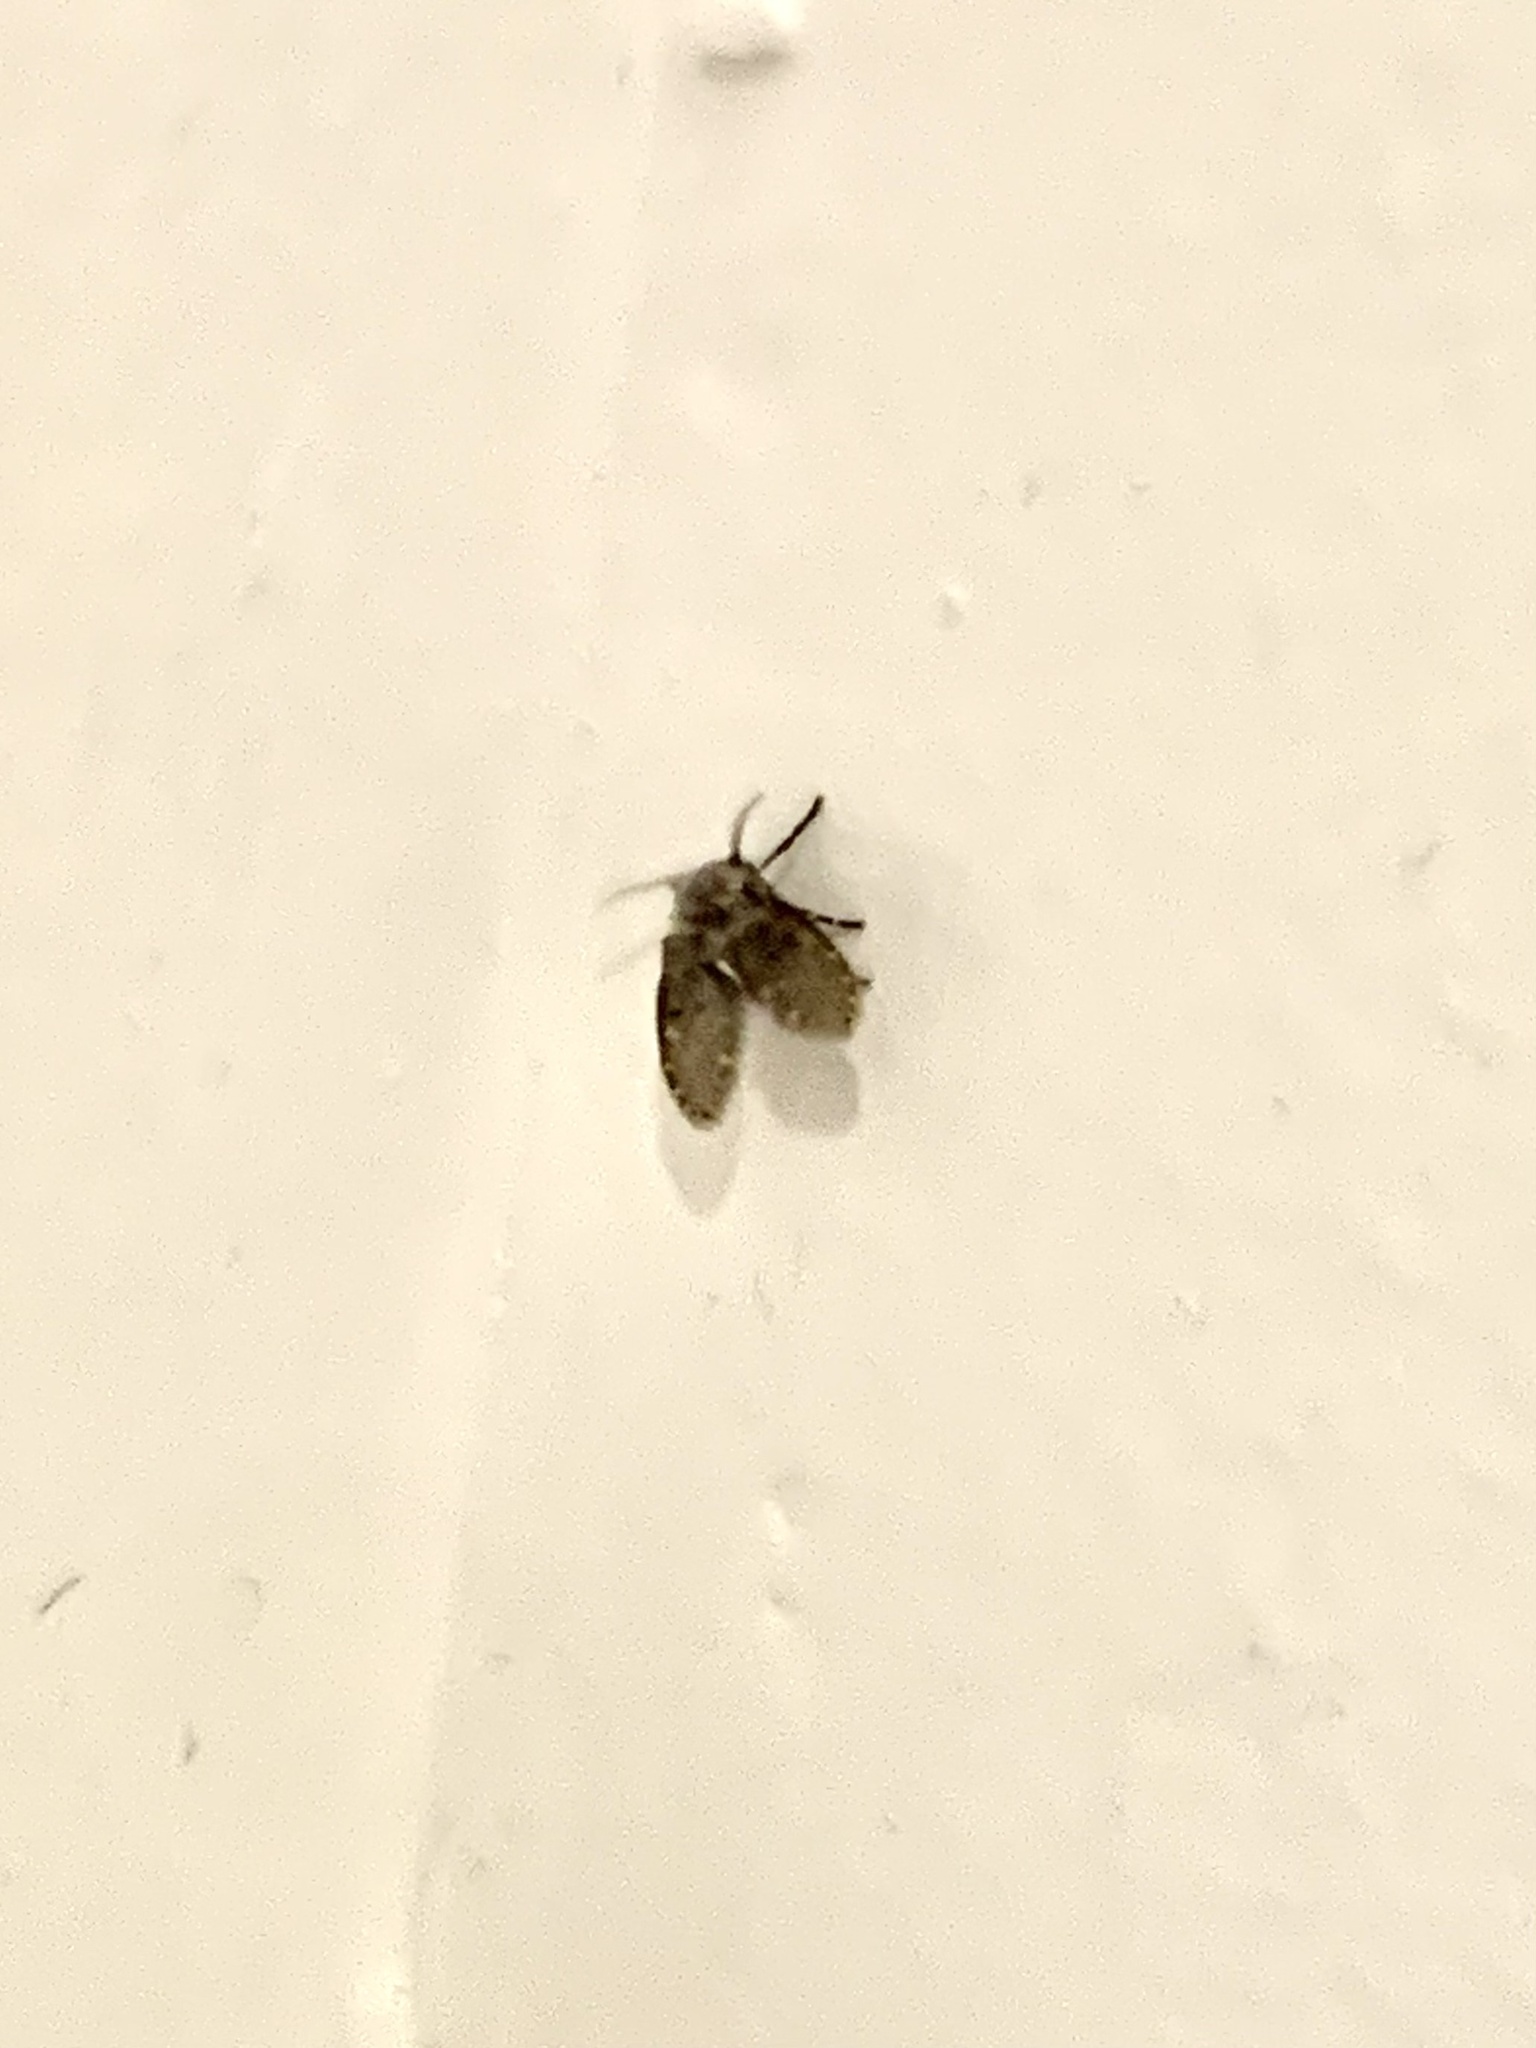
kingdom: Animalia
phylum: Arthropoda
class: Insecta
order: Diptera
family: Psychodidae
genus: Clogmia
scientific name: Clogmia albipunctatus
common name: White-spotted moth fly
